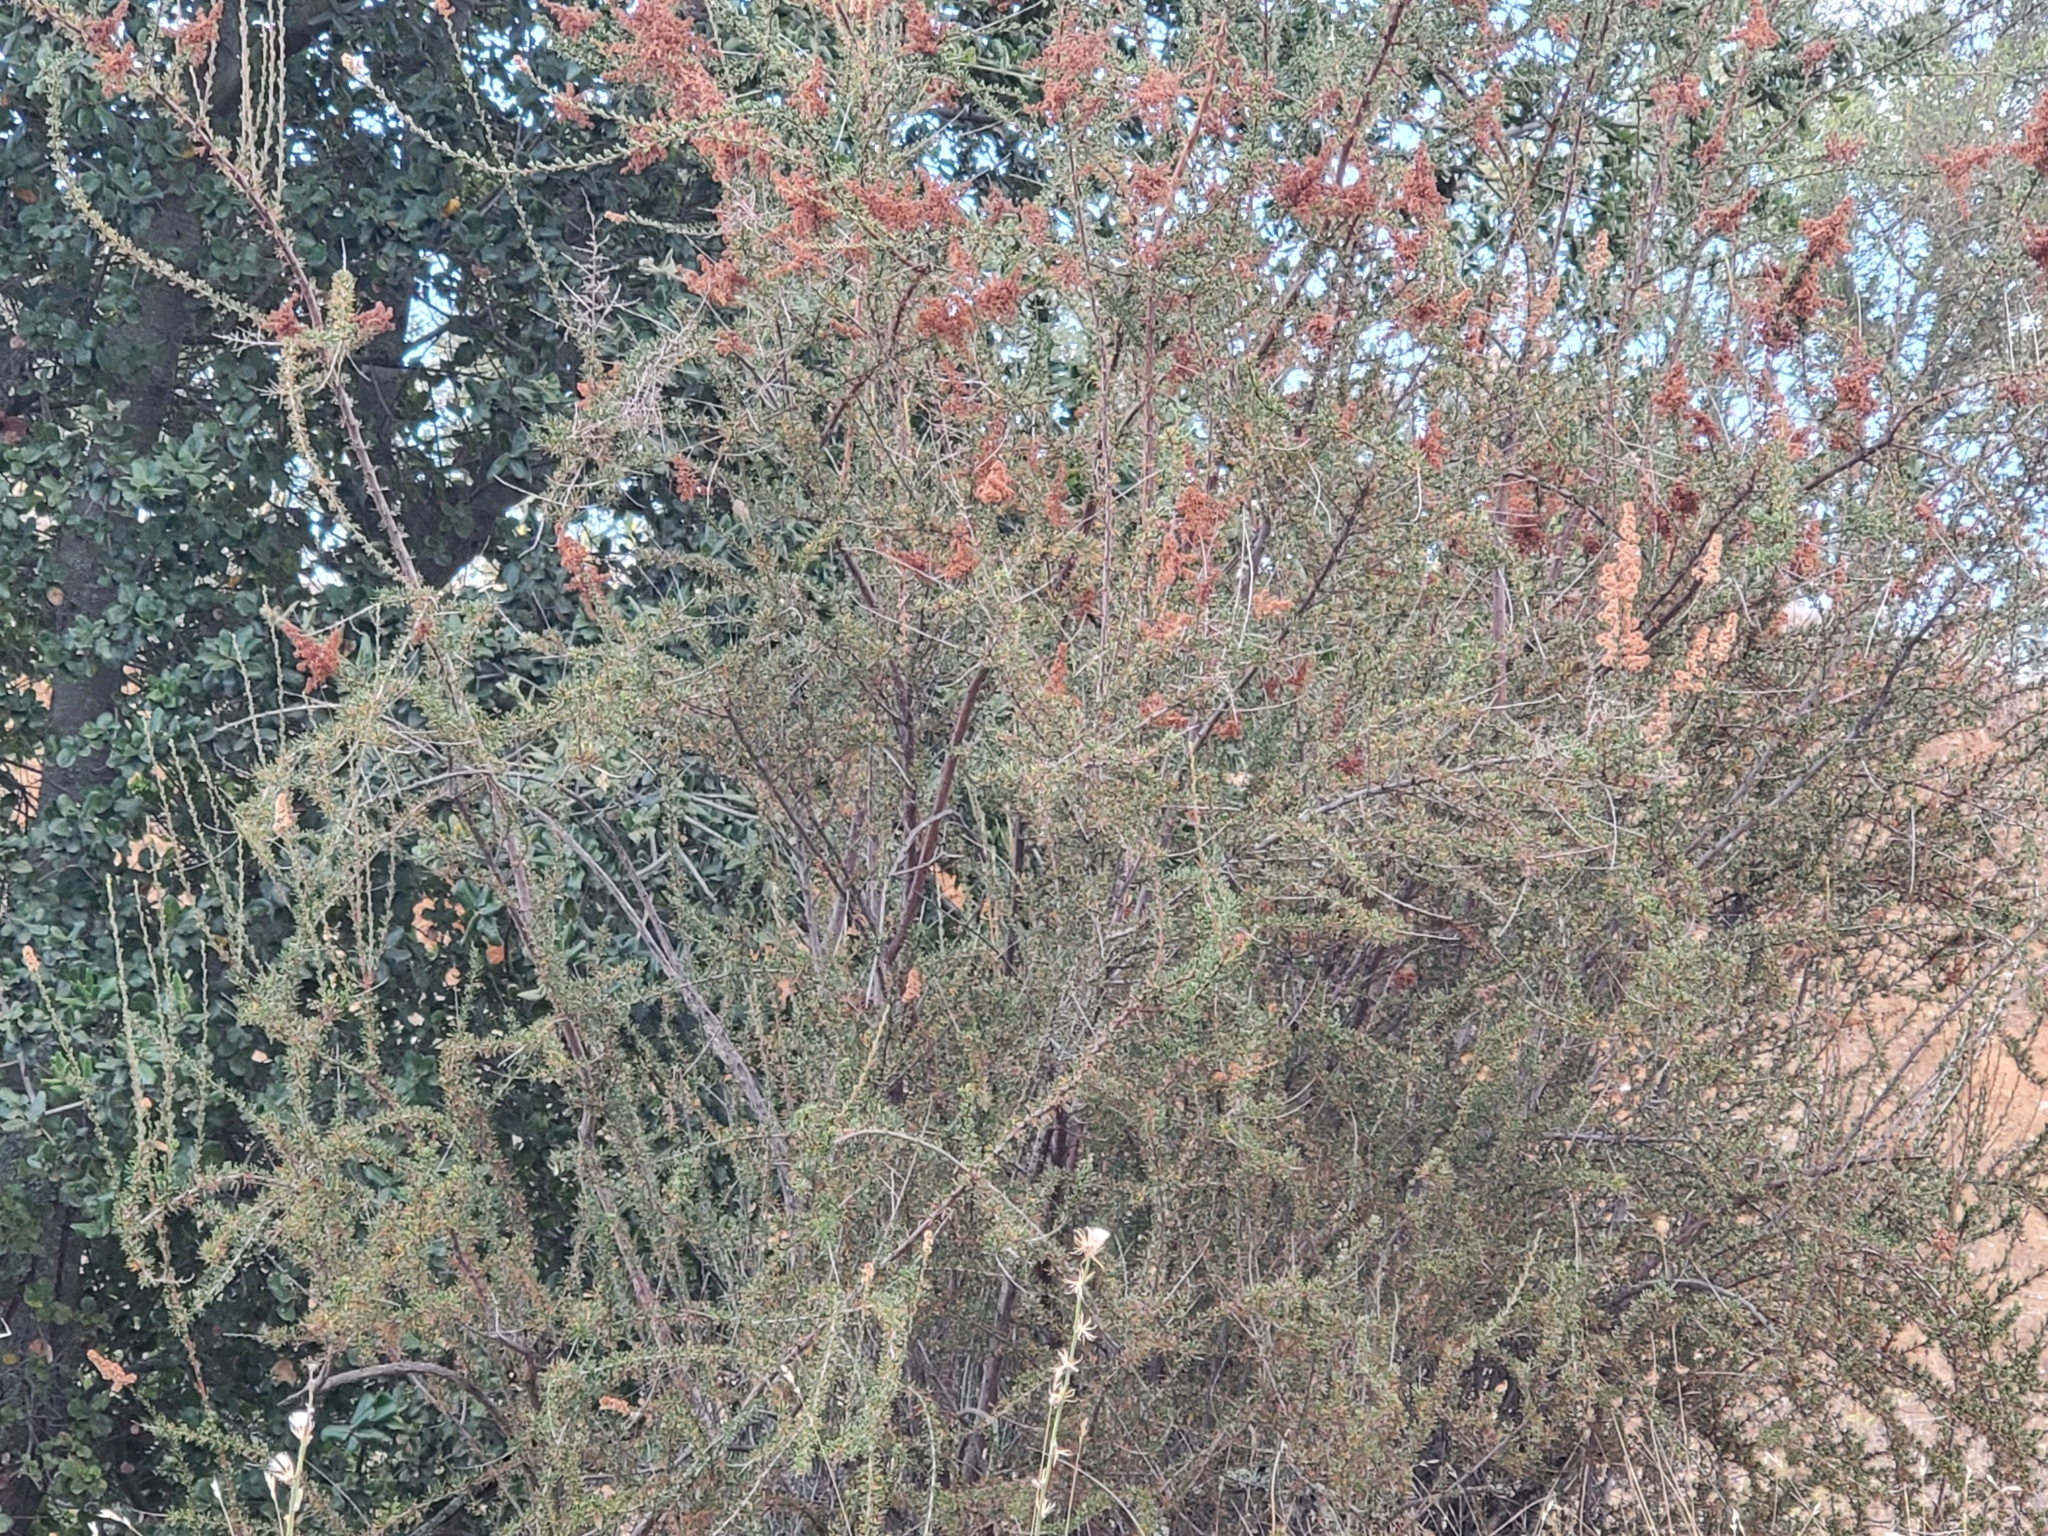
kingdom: Plantae
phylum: Tracheophyta
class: Magnoliopsida
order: Rosales
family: Rosaceae
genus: Adenostoma
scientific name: Adenostoma fasciculatum
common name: Chamise
